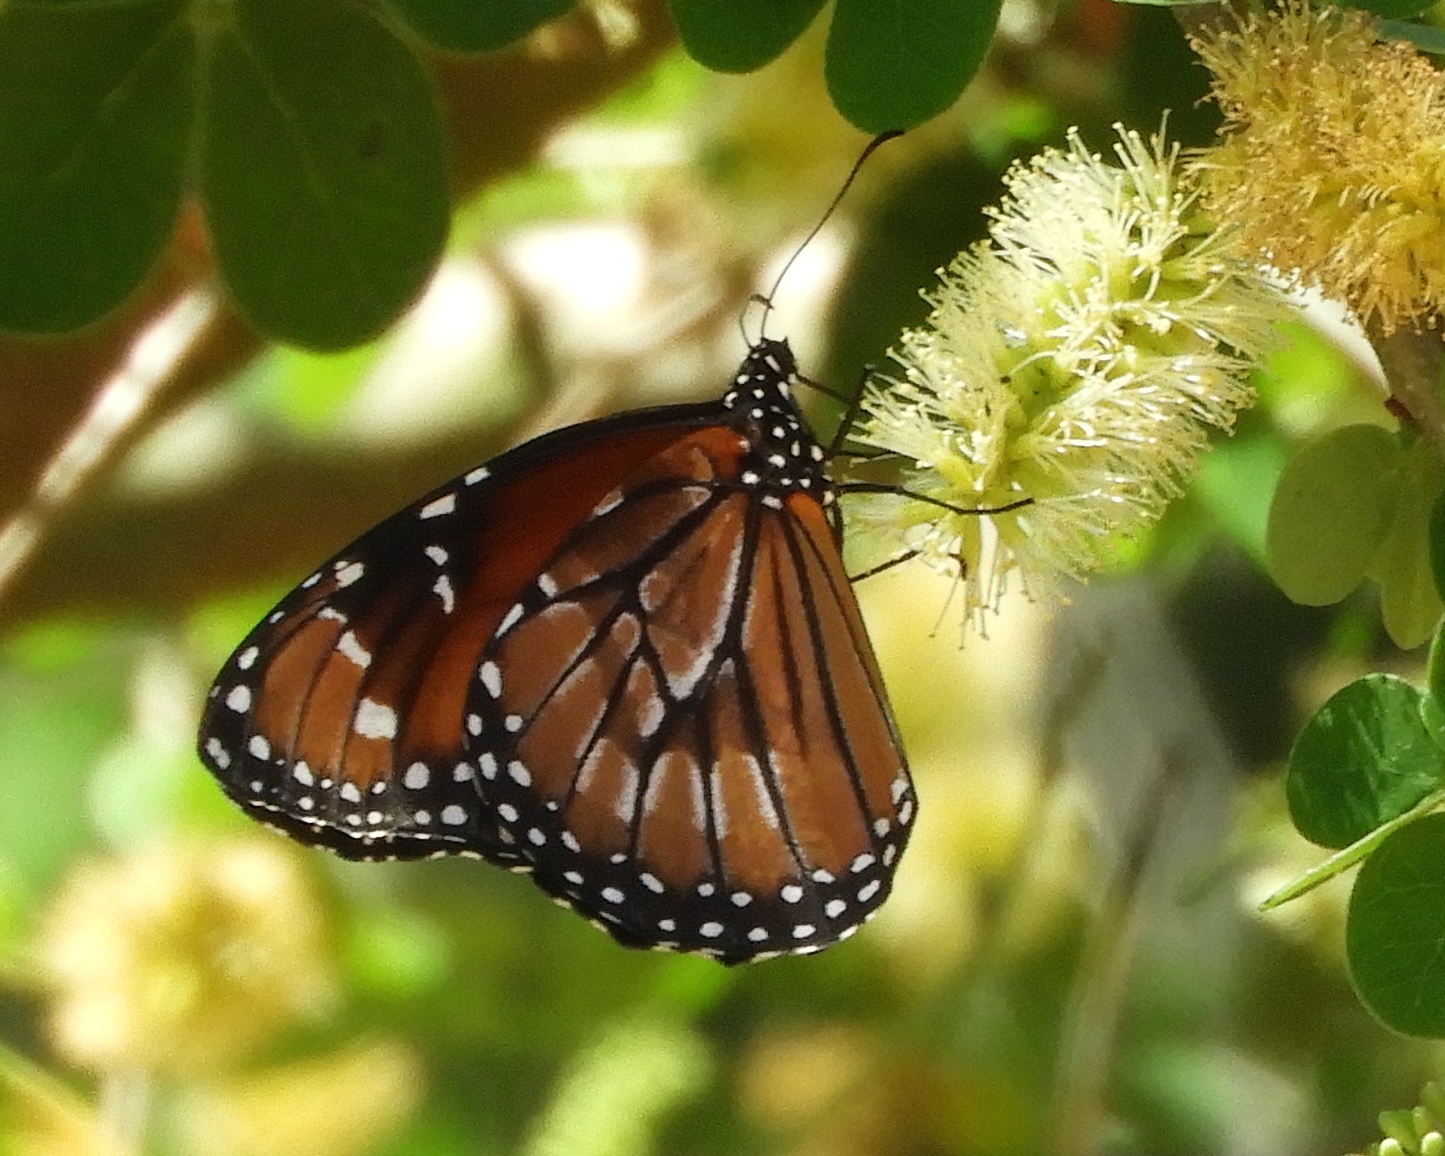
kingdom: Animalia
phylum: Arthropoda
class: Insecta
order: Lepidoptera
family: Nymphalidae
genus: Danaus
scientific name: Danaus eresimus
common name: Soldier
